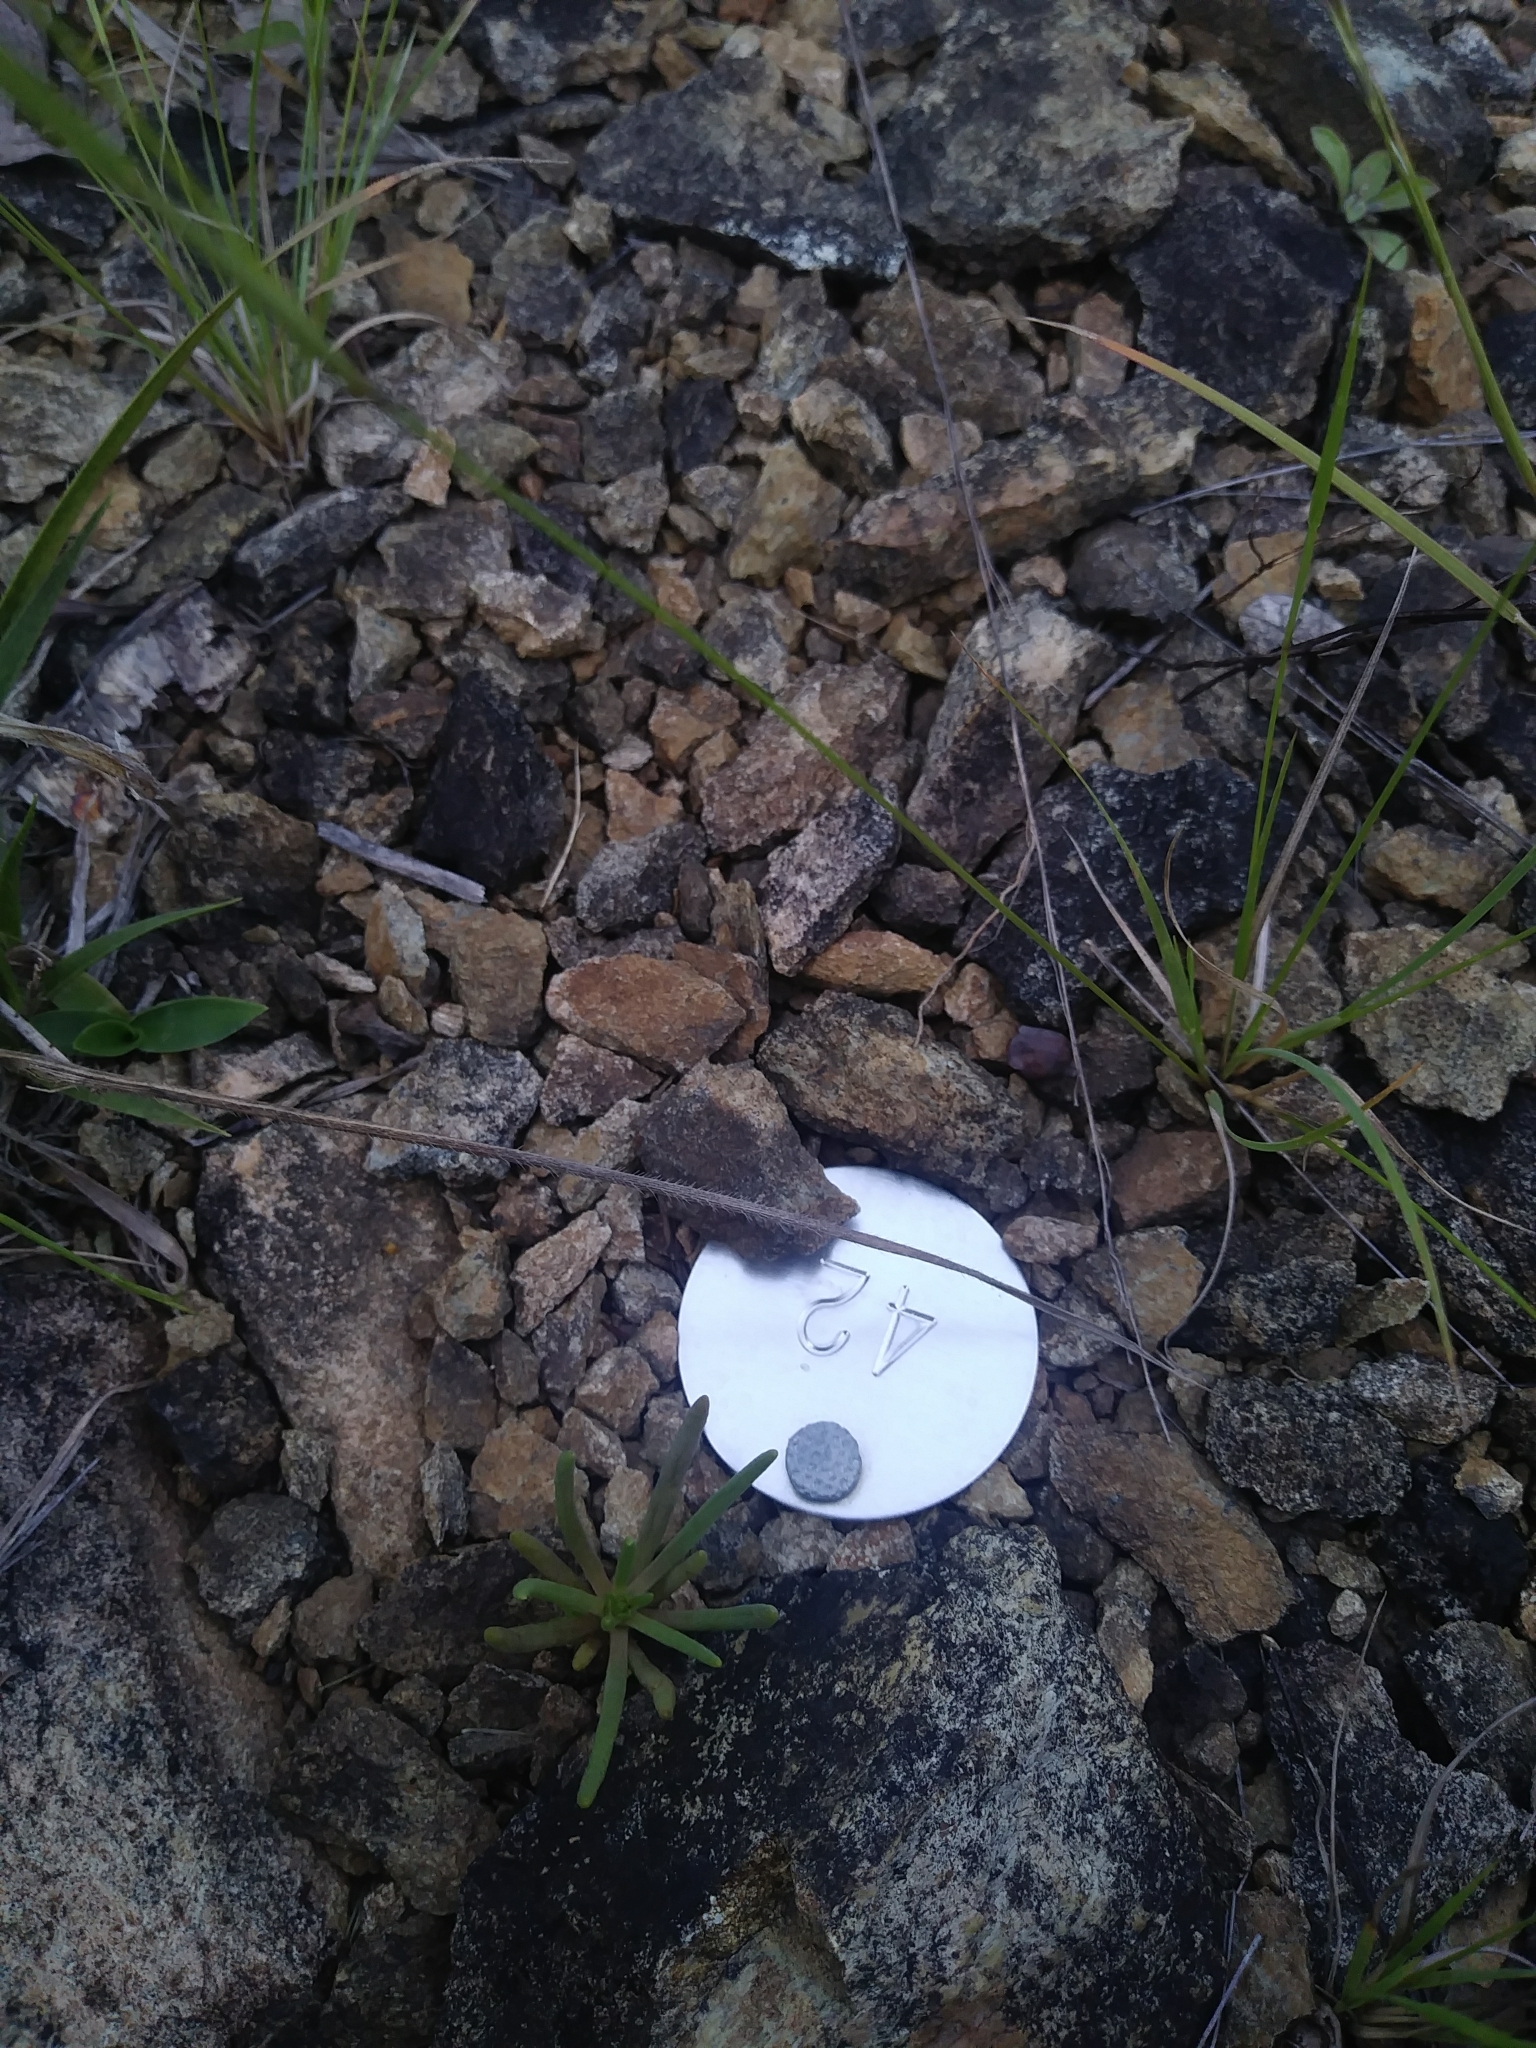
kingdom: Plantae
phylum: Tracheophyta
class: Magnoliopsida
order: Caryophyllales
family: Montiaceae
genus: Phemeranthus
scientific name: Phemeranthus teretifolius
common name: Quill fameflower
